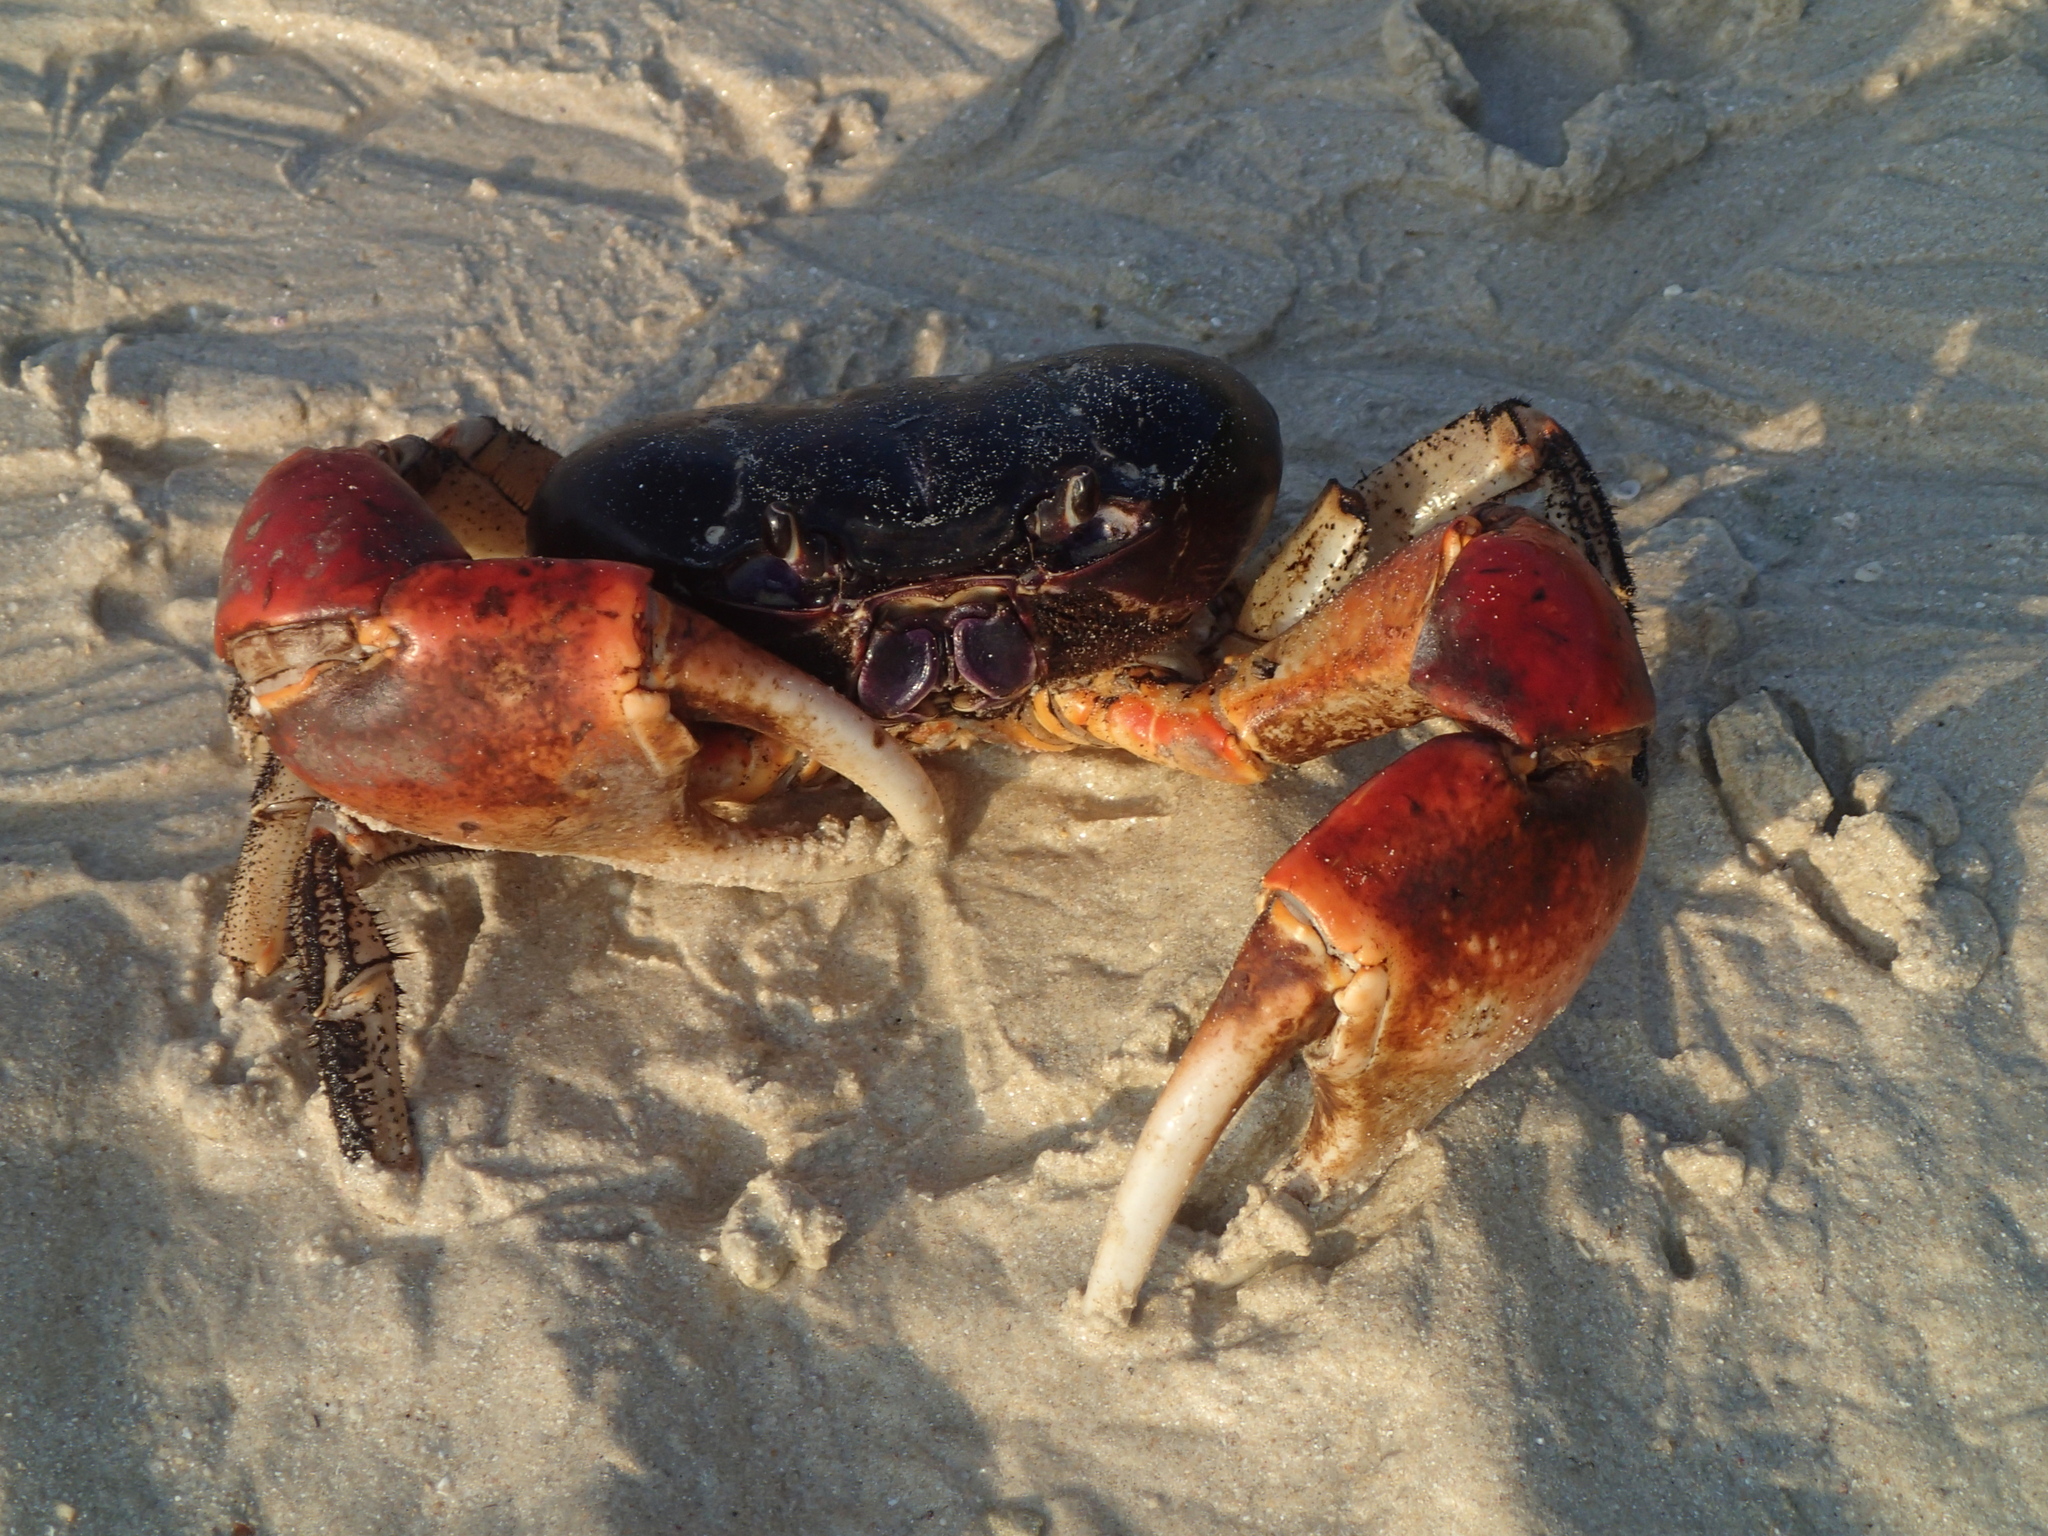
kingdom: Animalia
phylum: Arthropoda
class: Malacostraca
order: Decapoda
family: Gecarcinidae
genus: Tuerkayana
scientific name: Tuerkayana magnum
